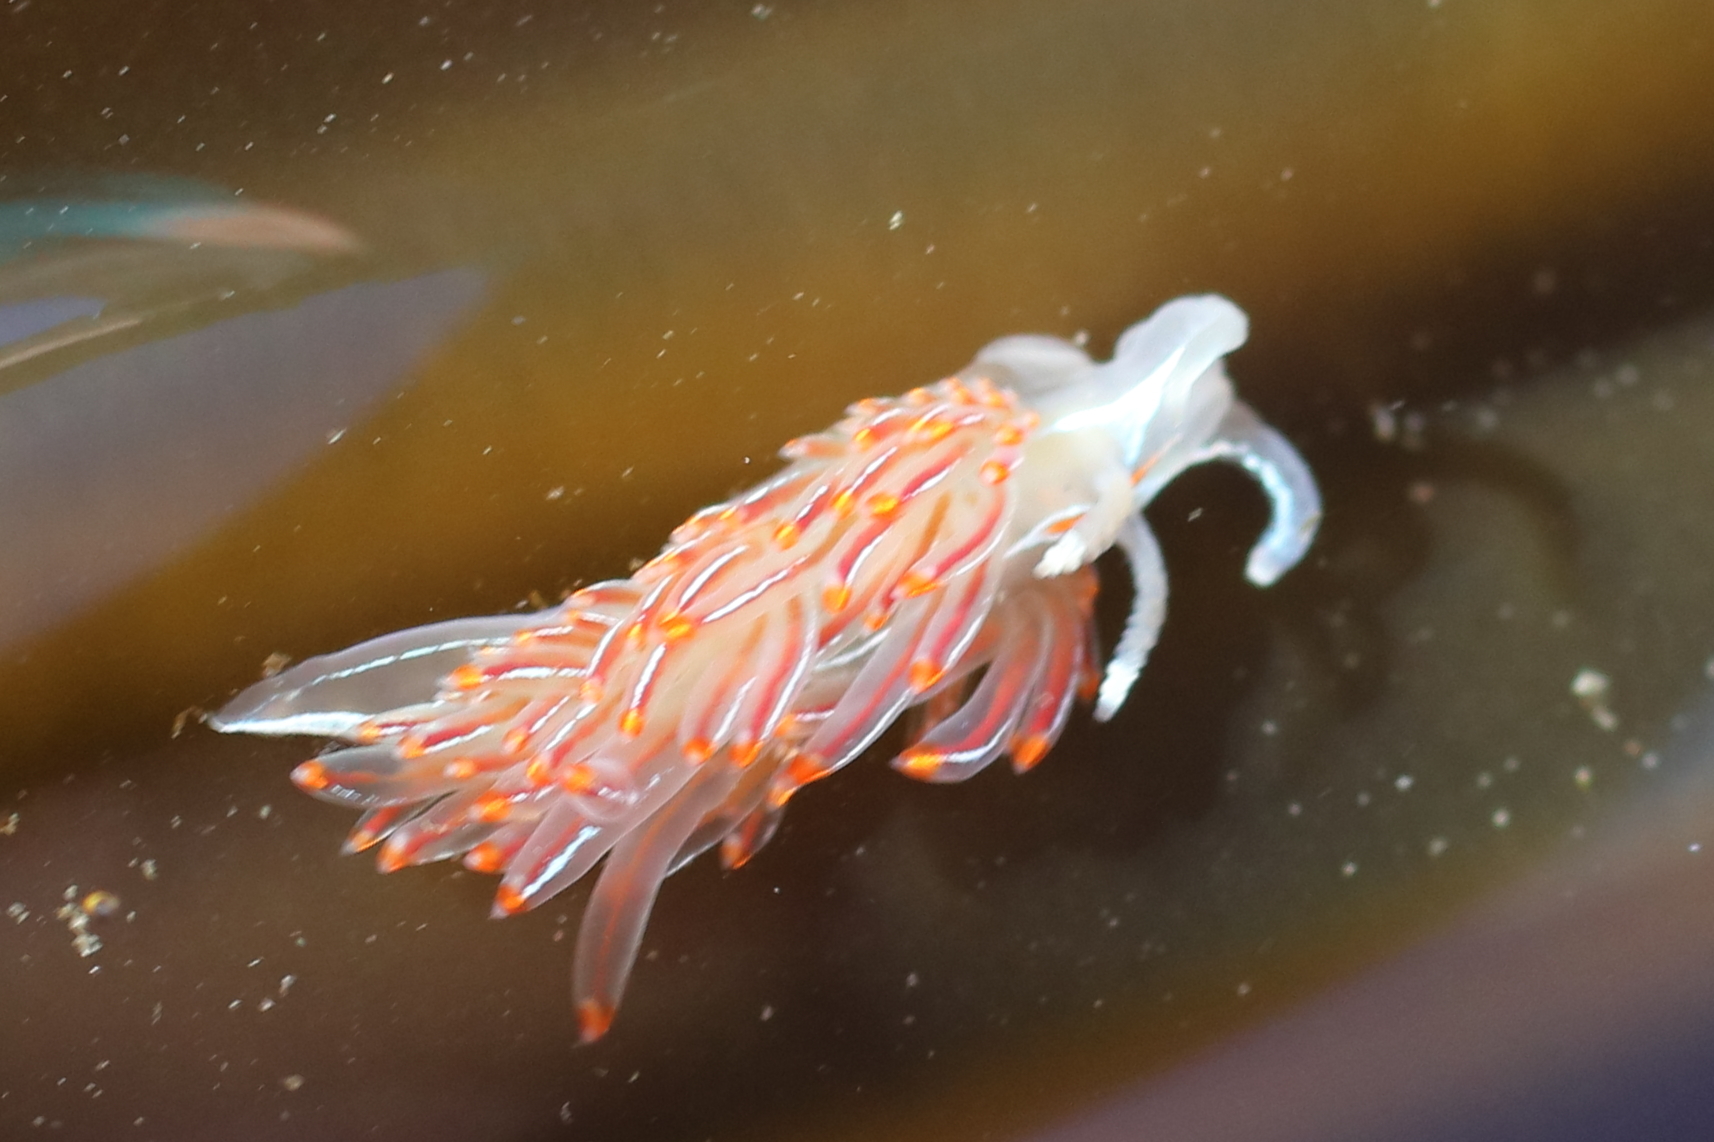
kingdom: Animalia
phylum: Mollusca
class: Gastropoda
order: Nudibranchia
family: Myrrhinidae
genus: Hermissenda
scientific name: Hermissenda crassicornis
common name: Hermissenda
